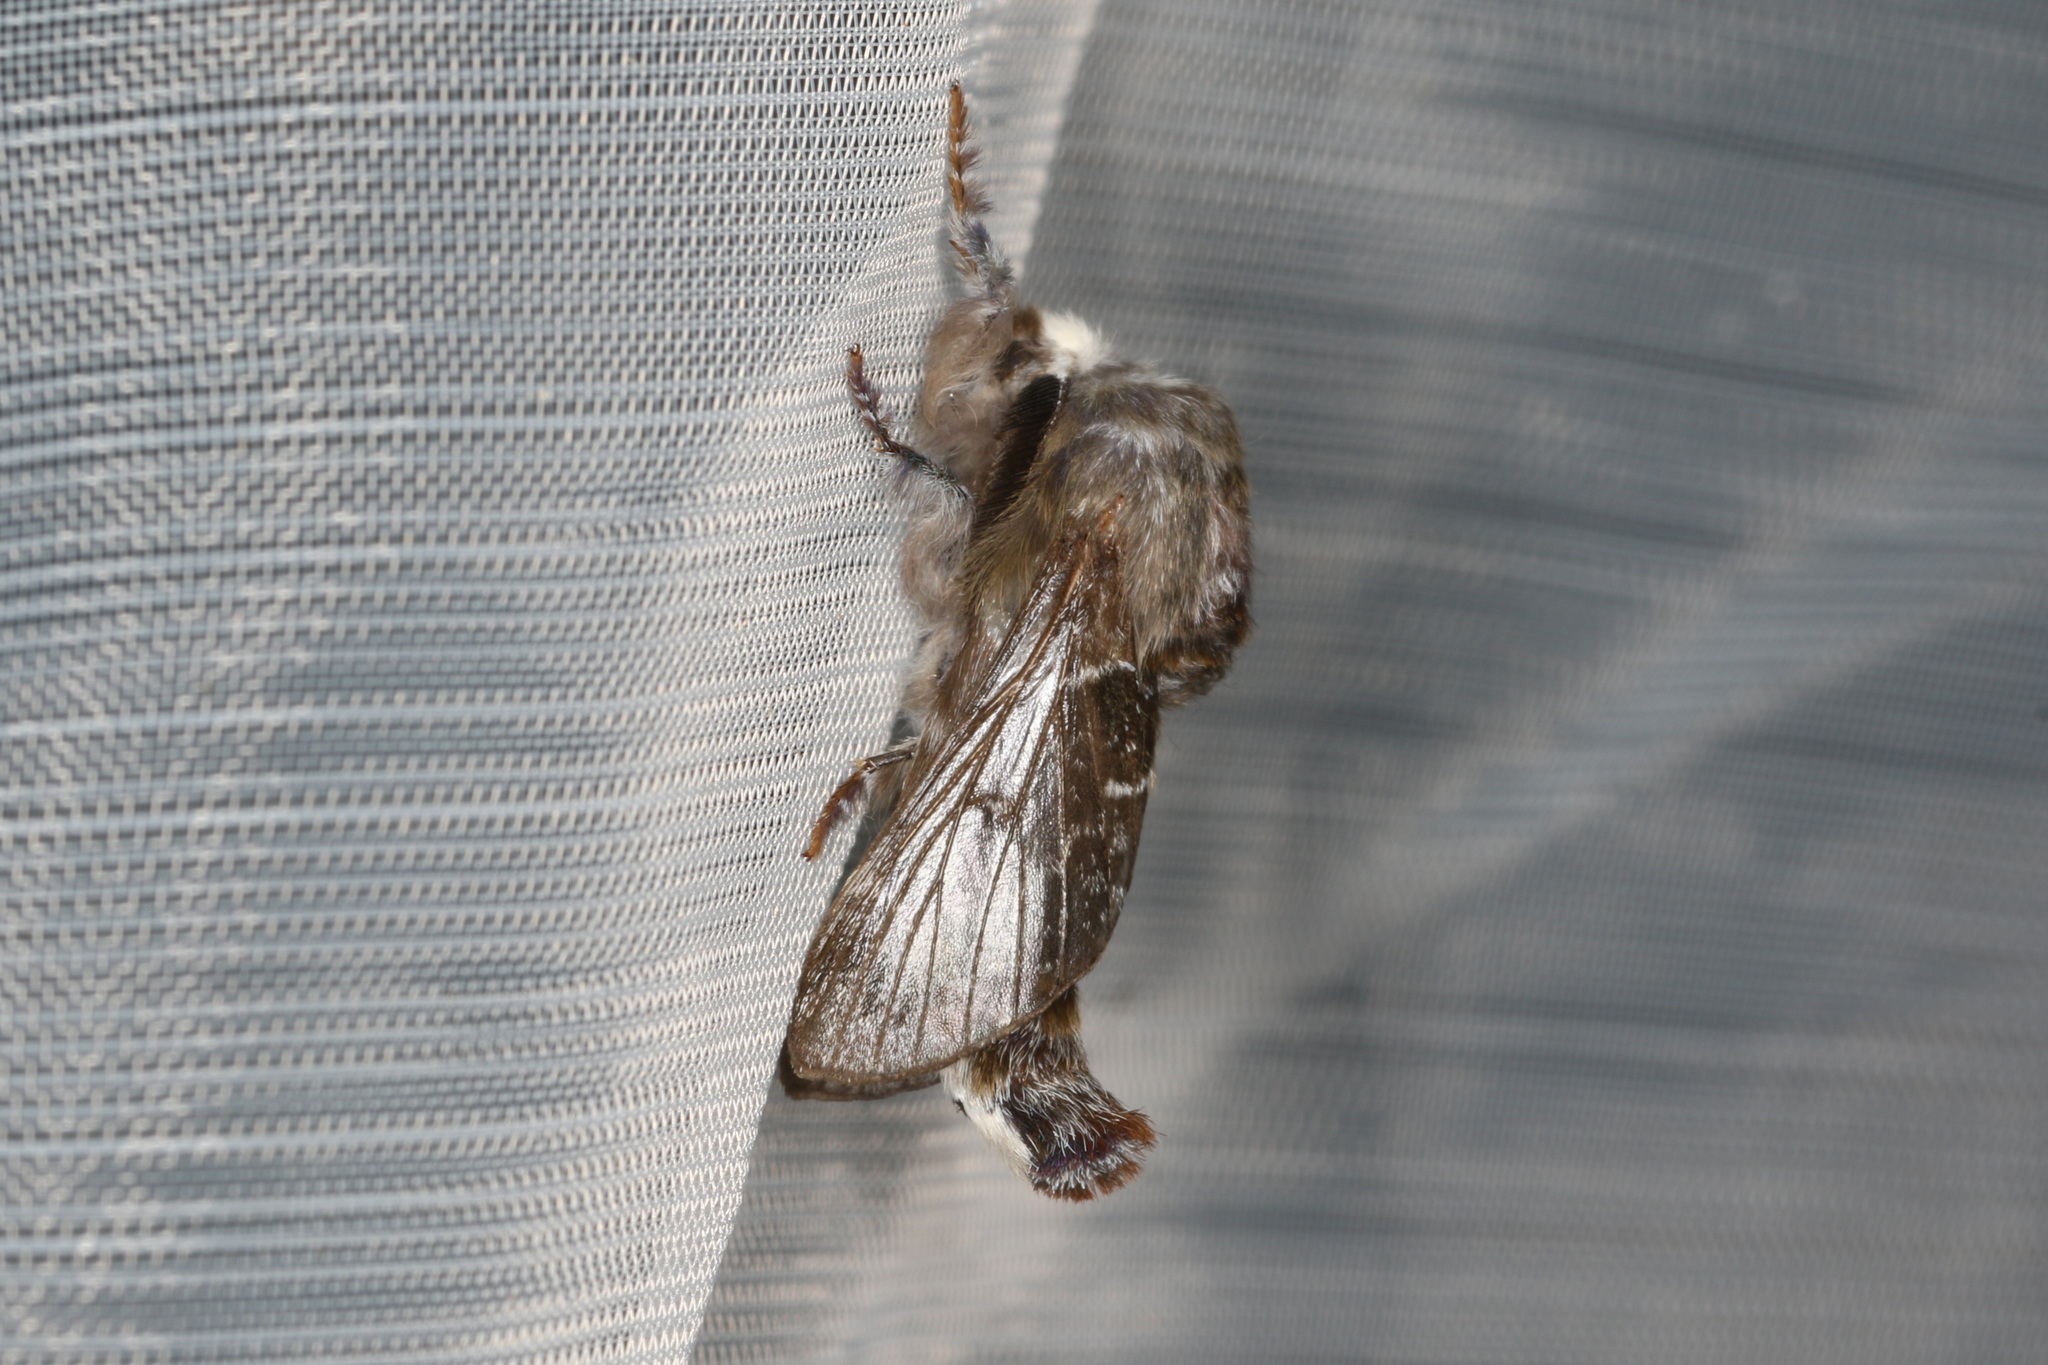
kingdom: Animalia
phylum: Arthropoda
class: Insecta
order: Lepidoptera
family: Lasiocampidae
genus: Genduara
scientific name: Genduara subnotata
